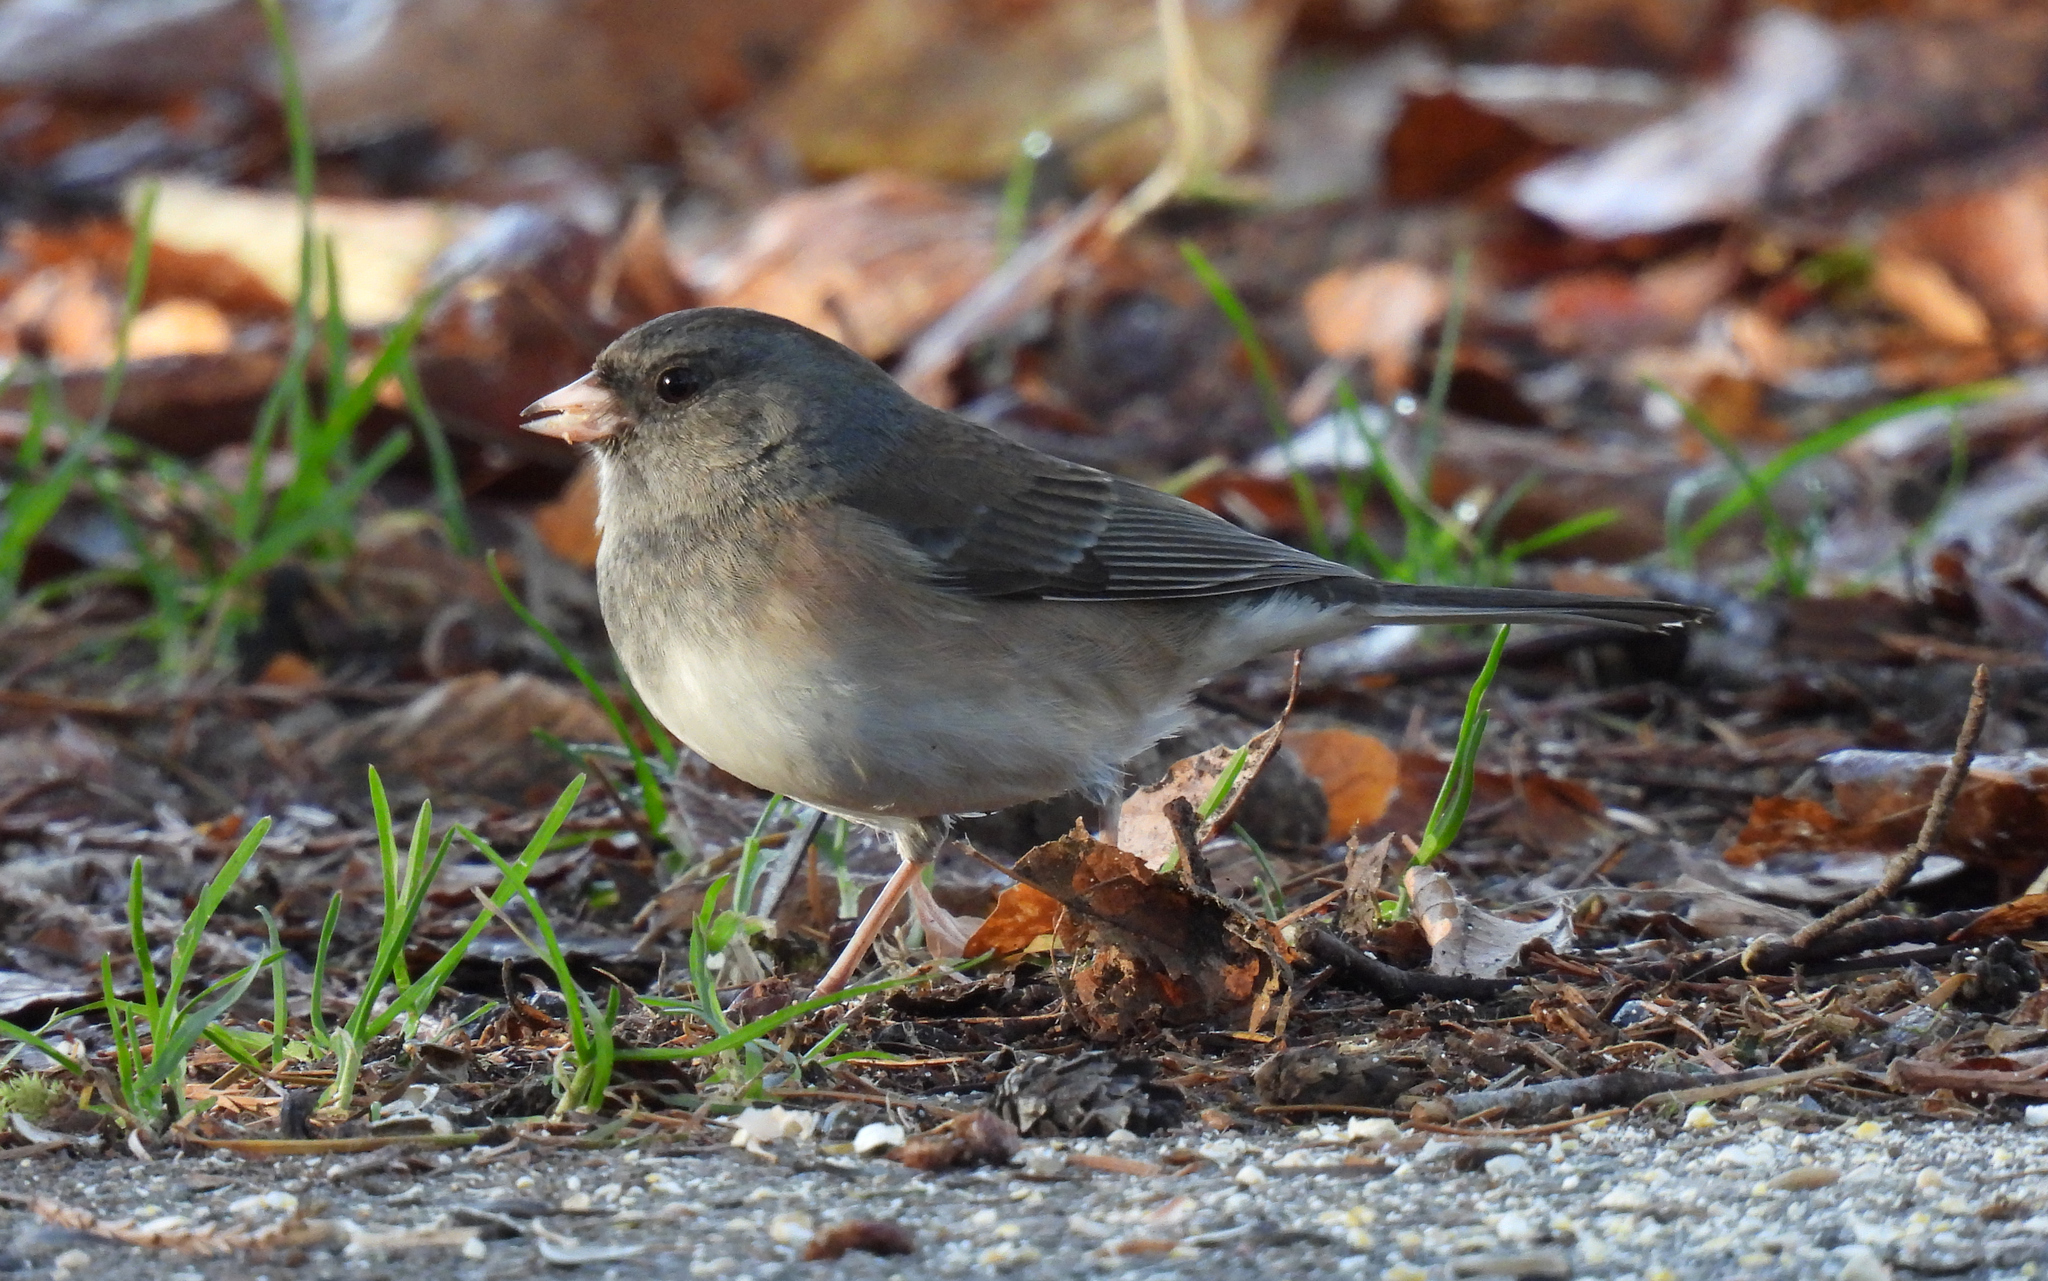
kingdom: Animalia
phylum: Chordata
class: Aves
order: Passeriformes
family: Passerellidae
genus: Junco
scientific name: Junco hyemalis
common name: Dark-eyed junco
